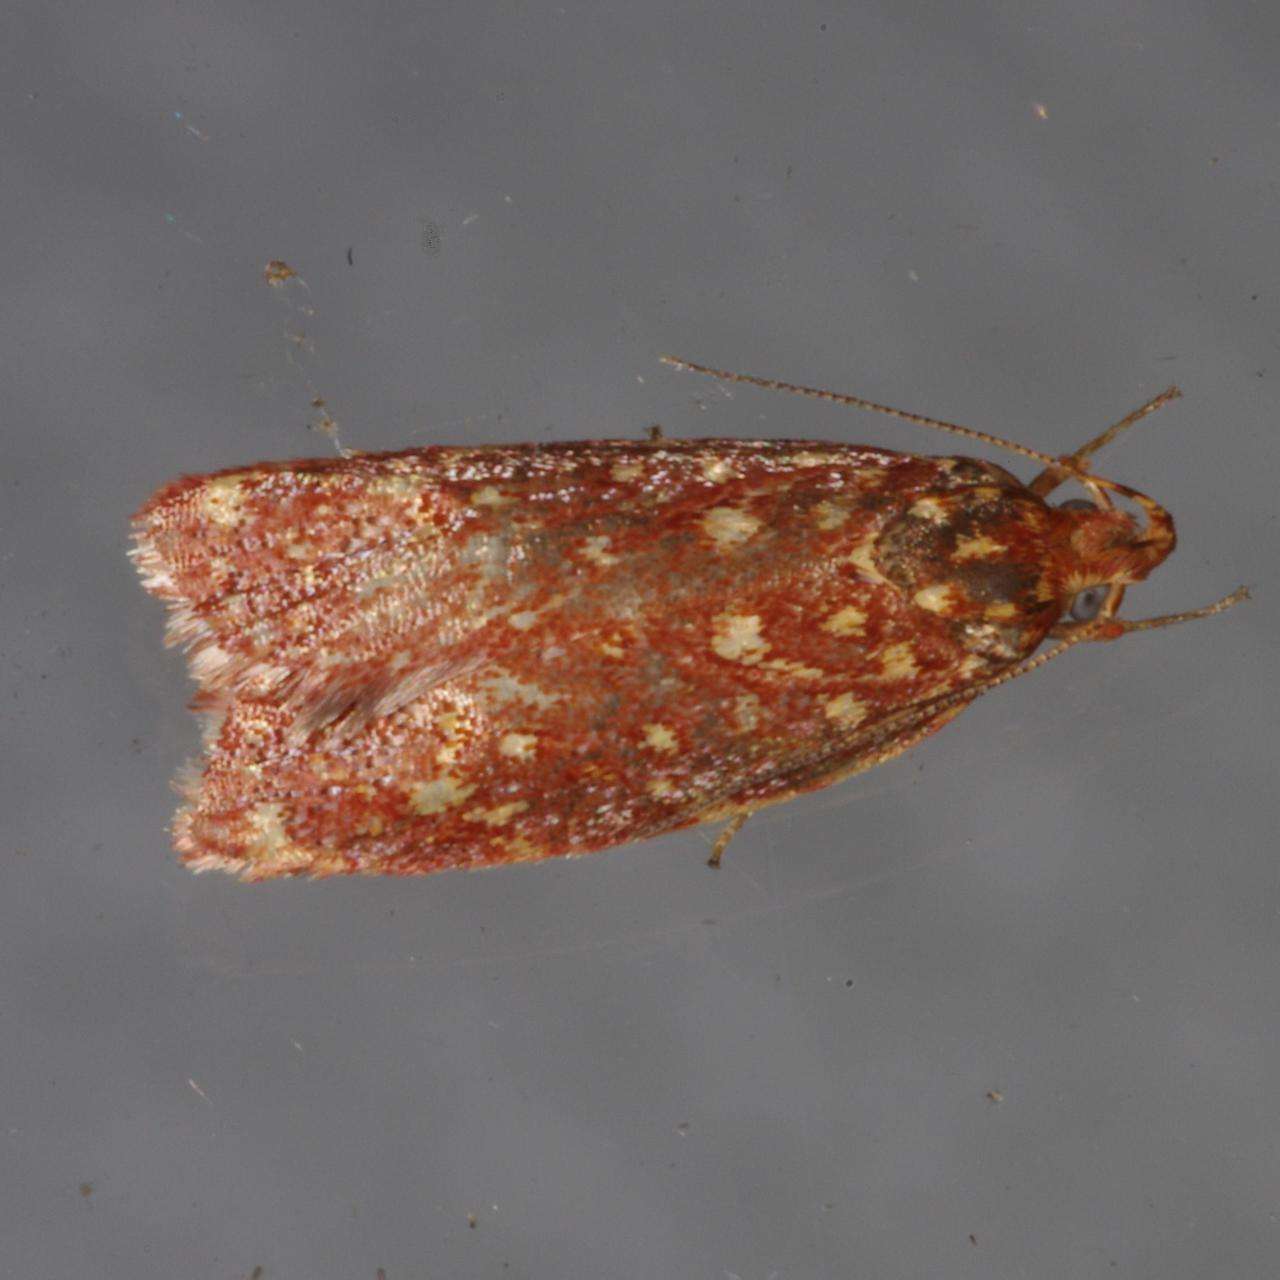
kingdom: Animalia
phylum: Arthropoda
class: Insecta
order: Lepidoptera
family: Oecophoridae
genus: Syringoseca
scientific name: Syringoseca rhodoxantha
